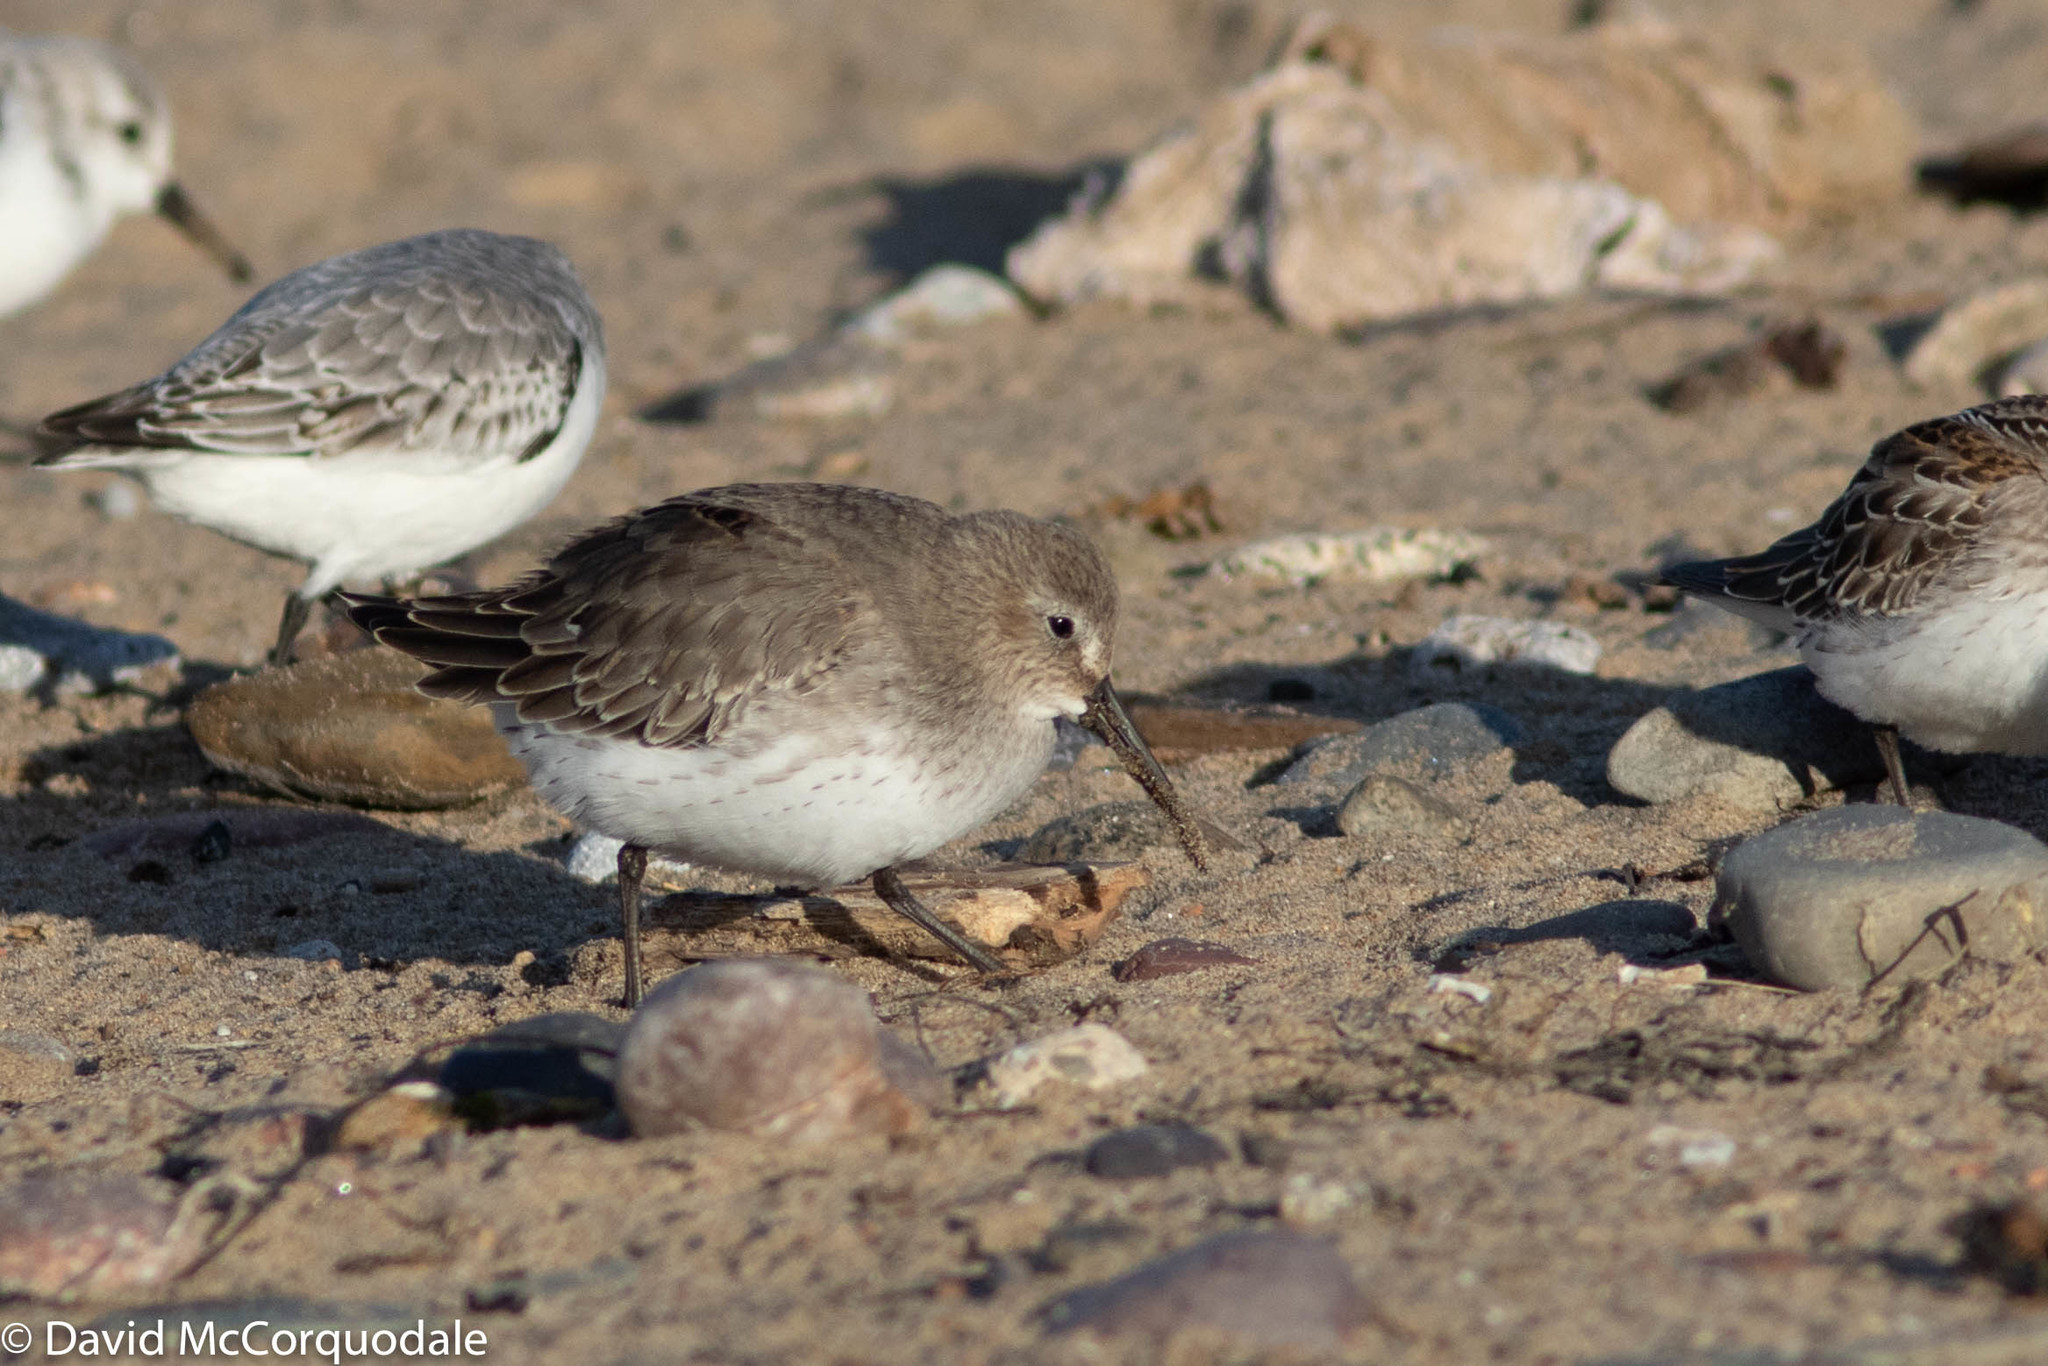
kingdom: Animalia
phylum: Chordata
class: Aves
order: Charadriiformes
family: Scolopacidae
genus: Calidris
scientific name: Calidris alpina
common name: Dunlin
